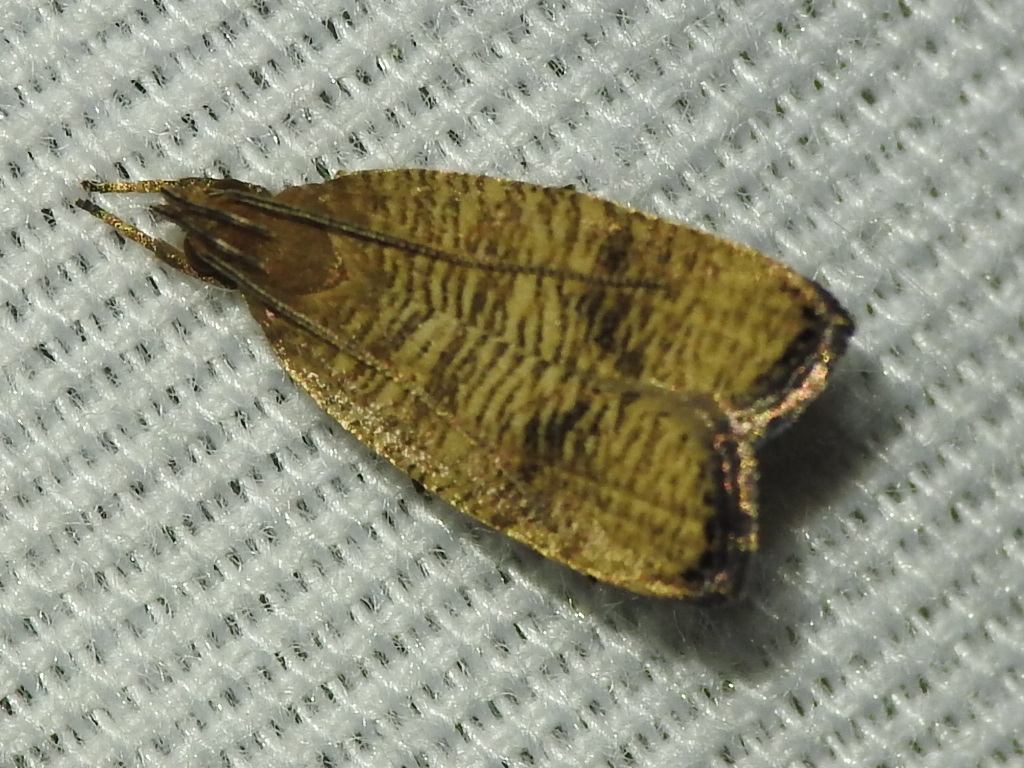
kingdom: Animalia
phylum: Arthropoda
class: Insecta
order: Lepidoptera
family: Depressariidae
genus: Psilocorsis
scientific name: Psilocorsis cryptolechiella
